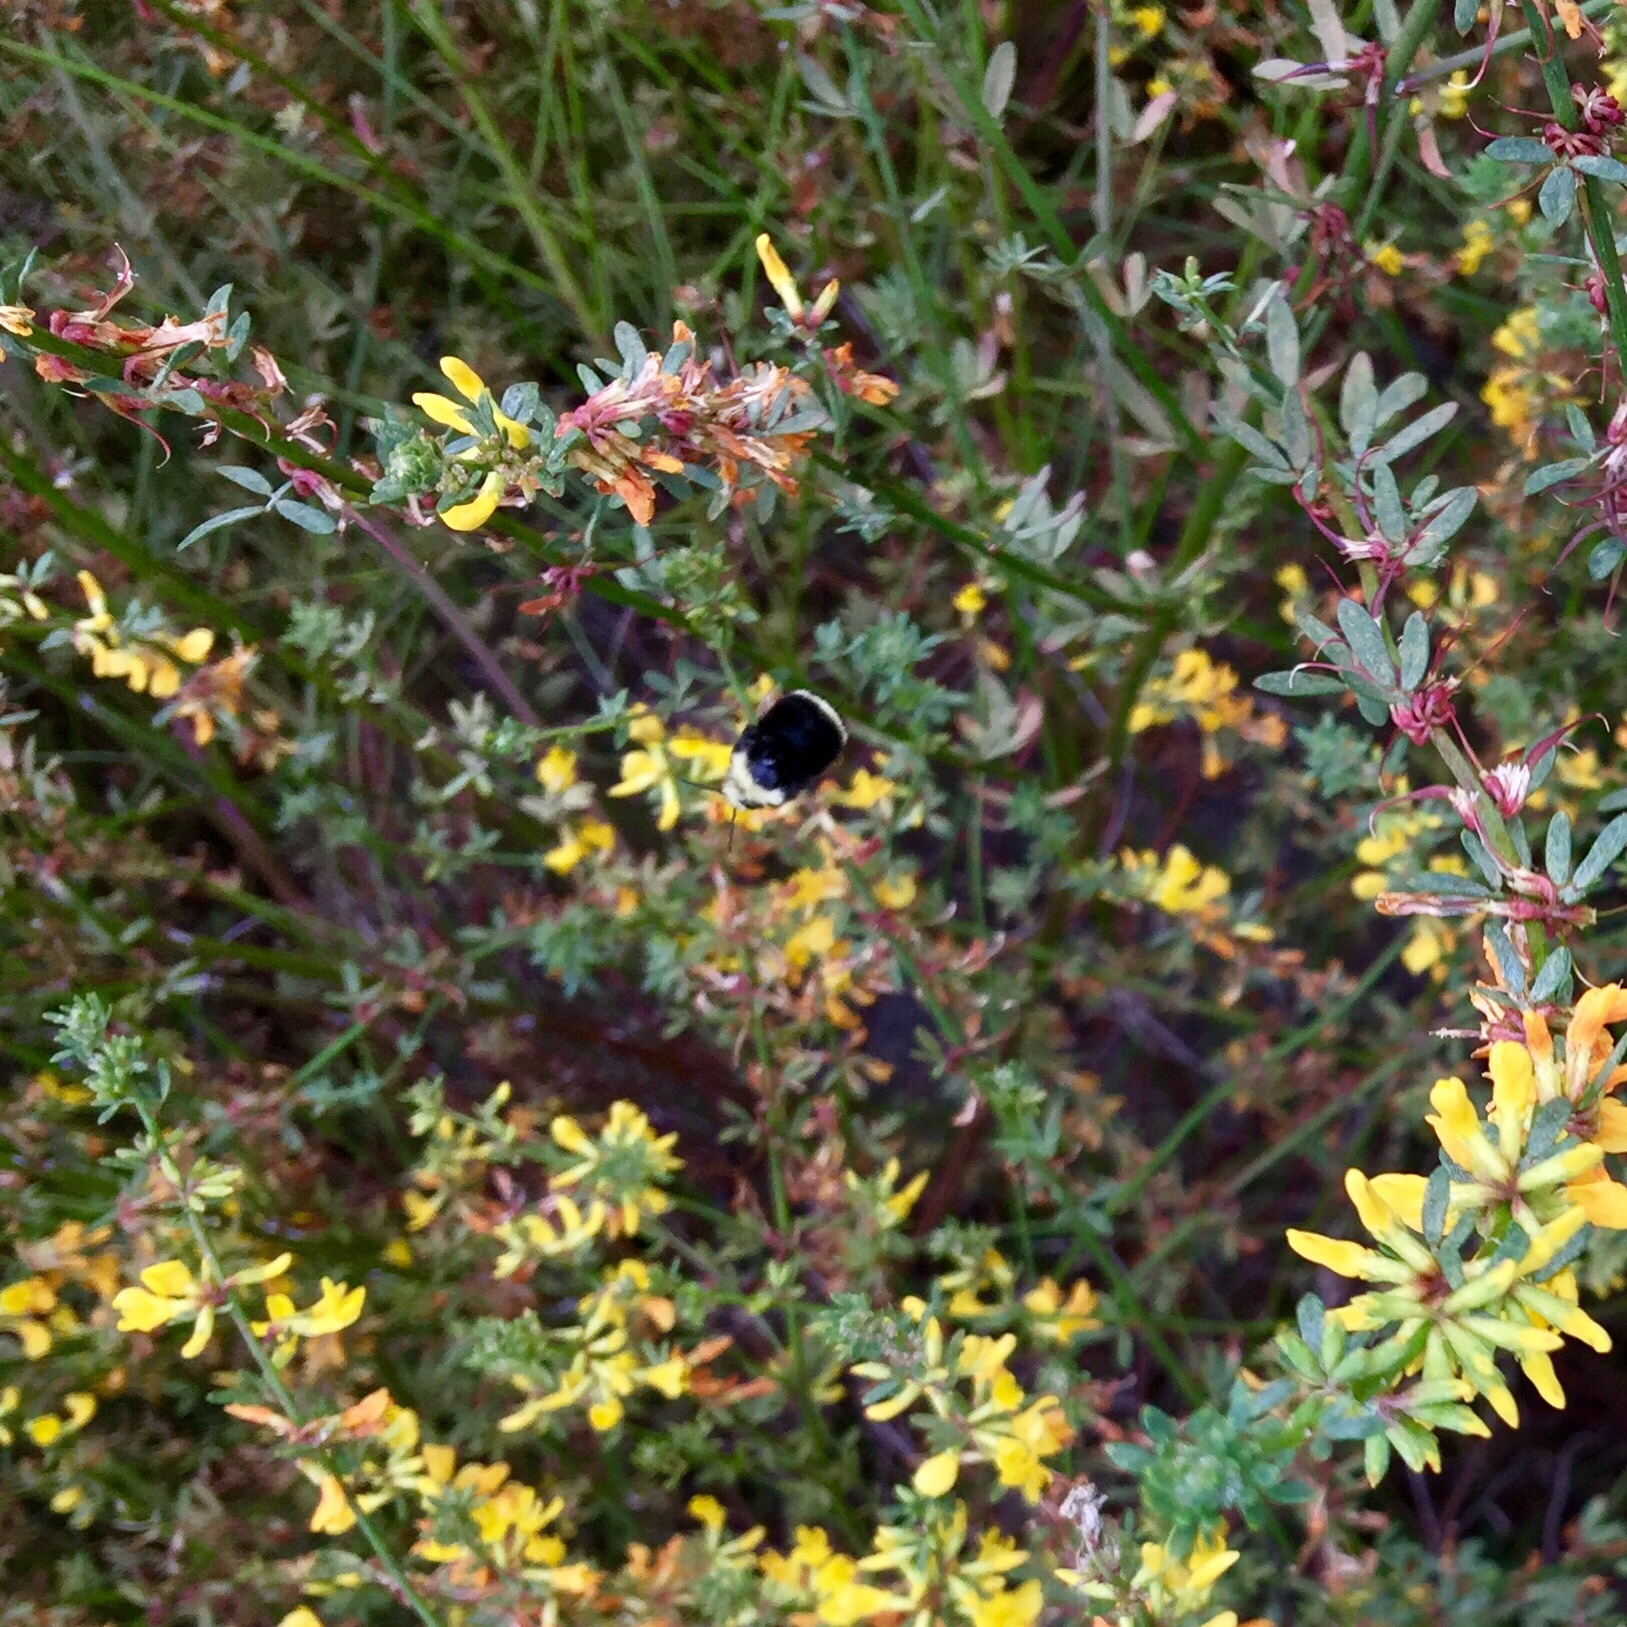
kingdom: Animalia
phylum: Arthropoda
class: Insecta
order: Hymenoptera
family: Apidae
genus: Bombus
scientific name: Bombus vosnesenskii
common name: Vosnesensky bumble bee
